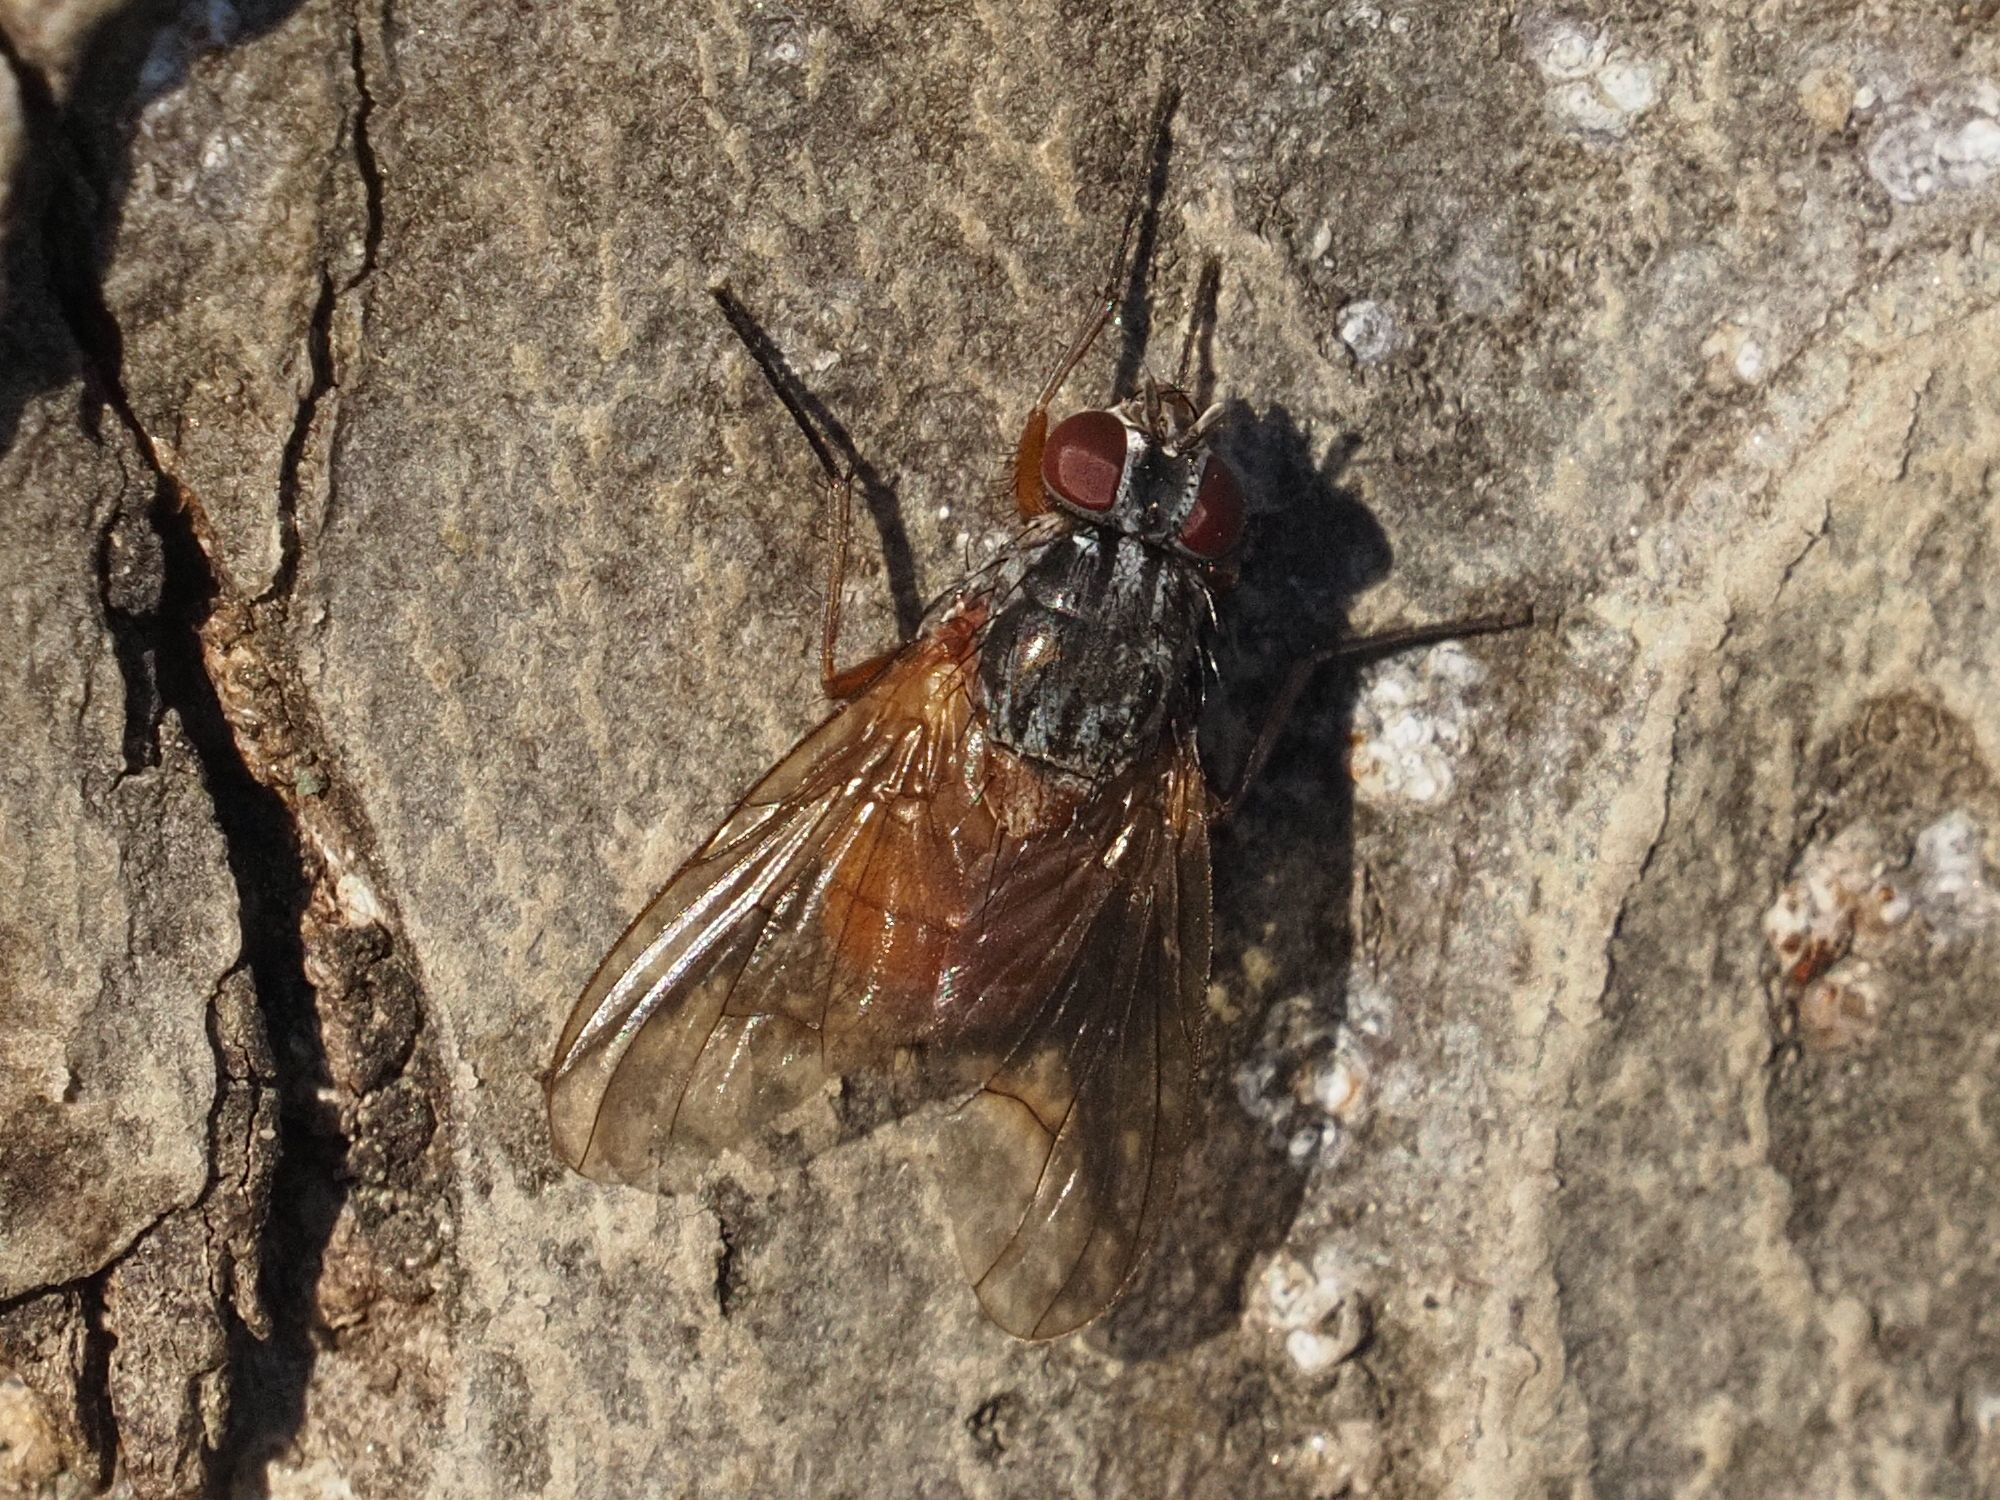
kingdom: Animalia
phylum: Arthropoda
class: Insecta
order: Diptera
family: Muscidae
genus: Phaonia
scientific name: Phaonia subventa
